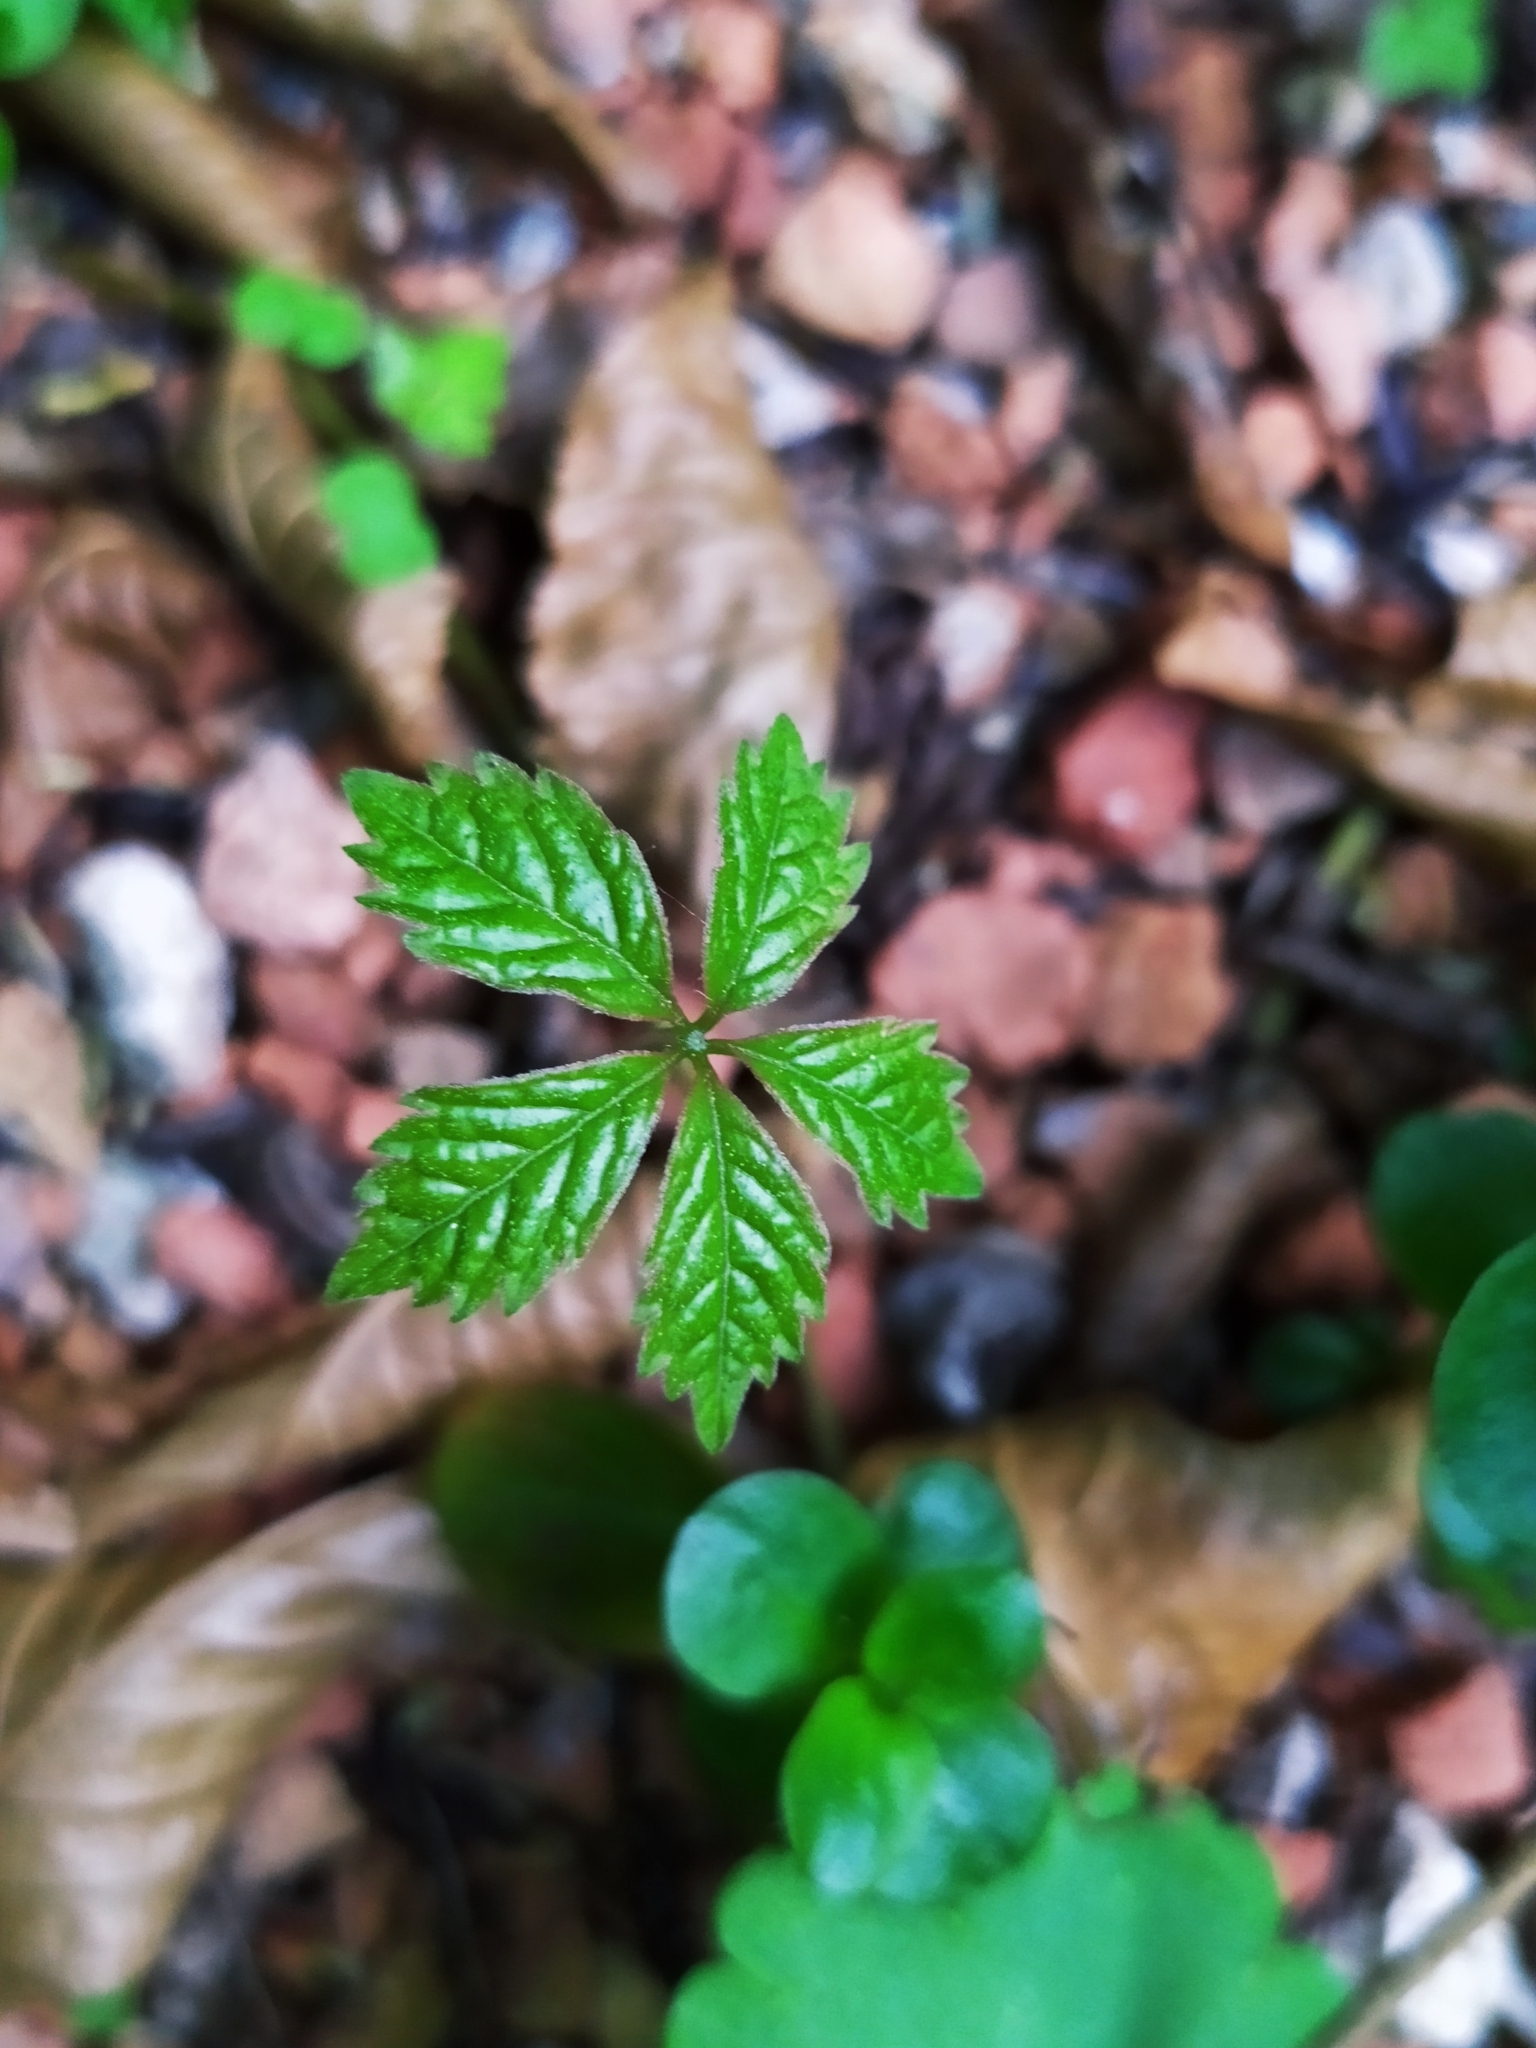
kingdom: Plantae
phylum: Tracheophyta
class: Magnoliopsida
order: Vitales
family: Vitaceae
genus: Parthenocissus
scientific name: Parthenocissus inserta
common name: False virginia-creeper
